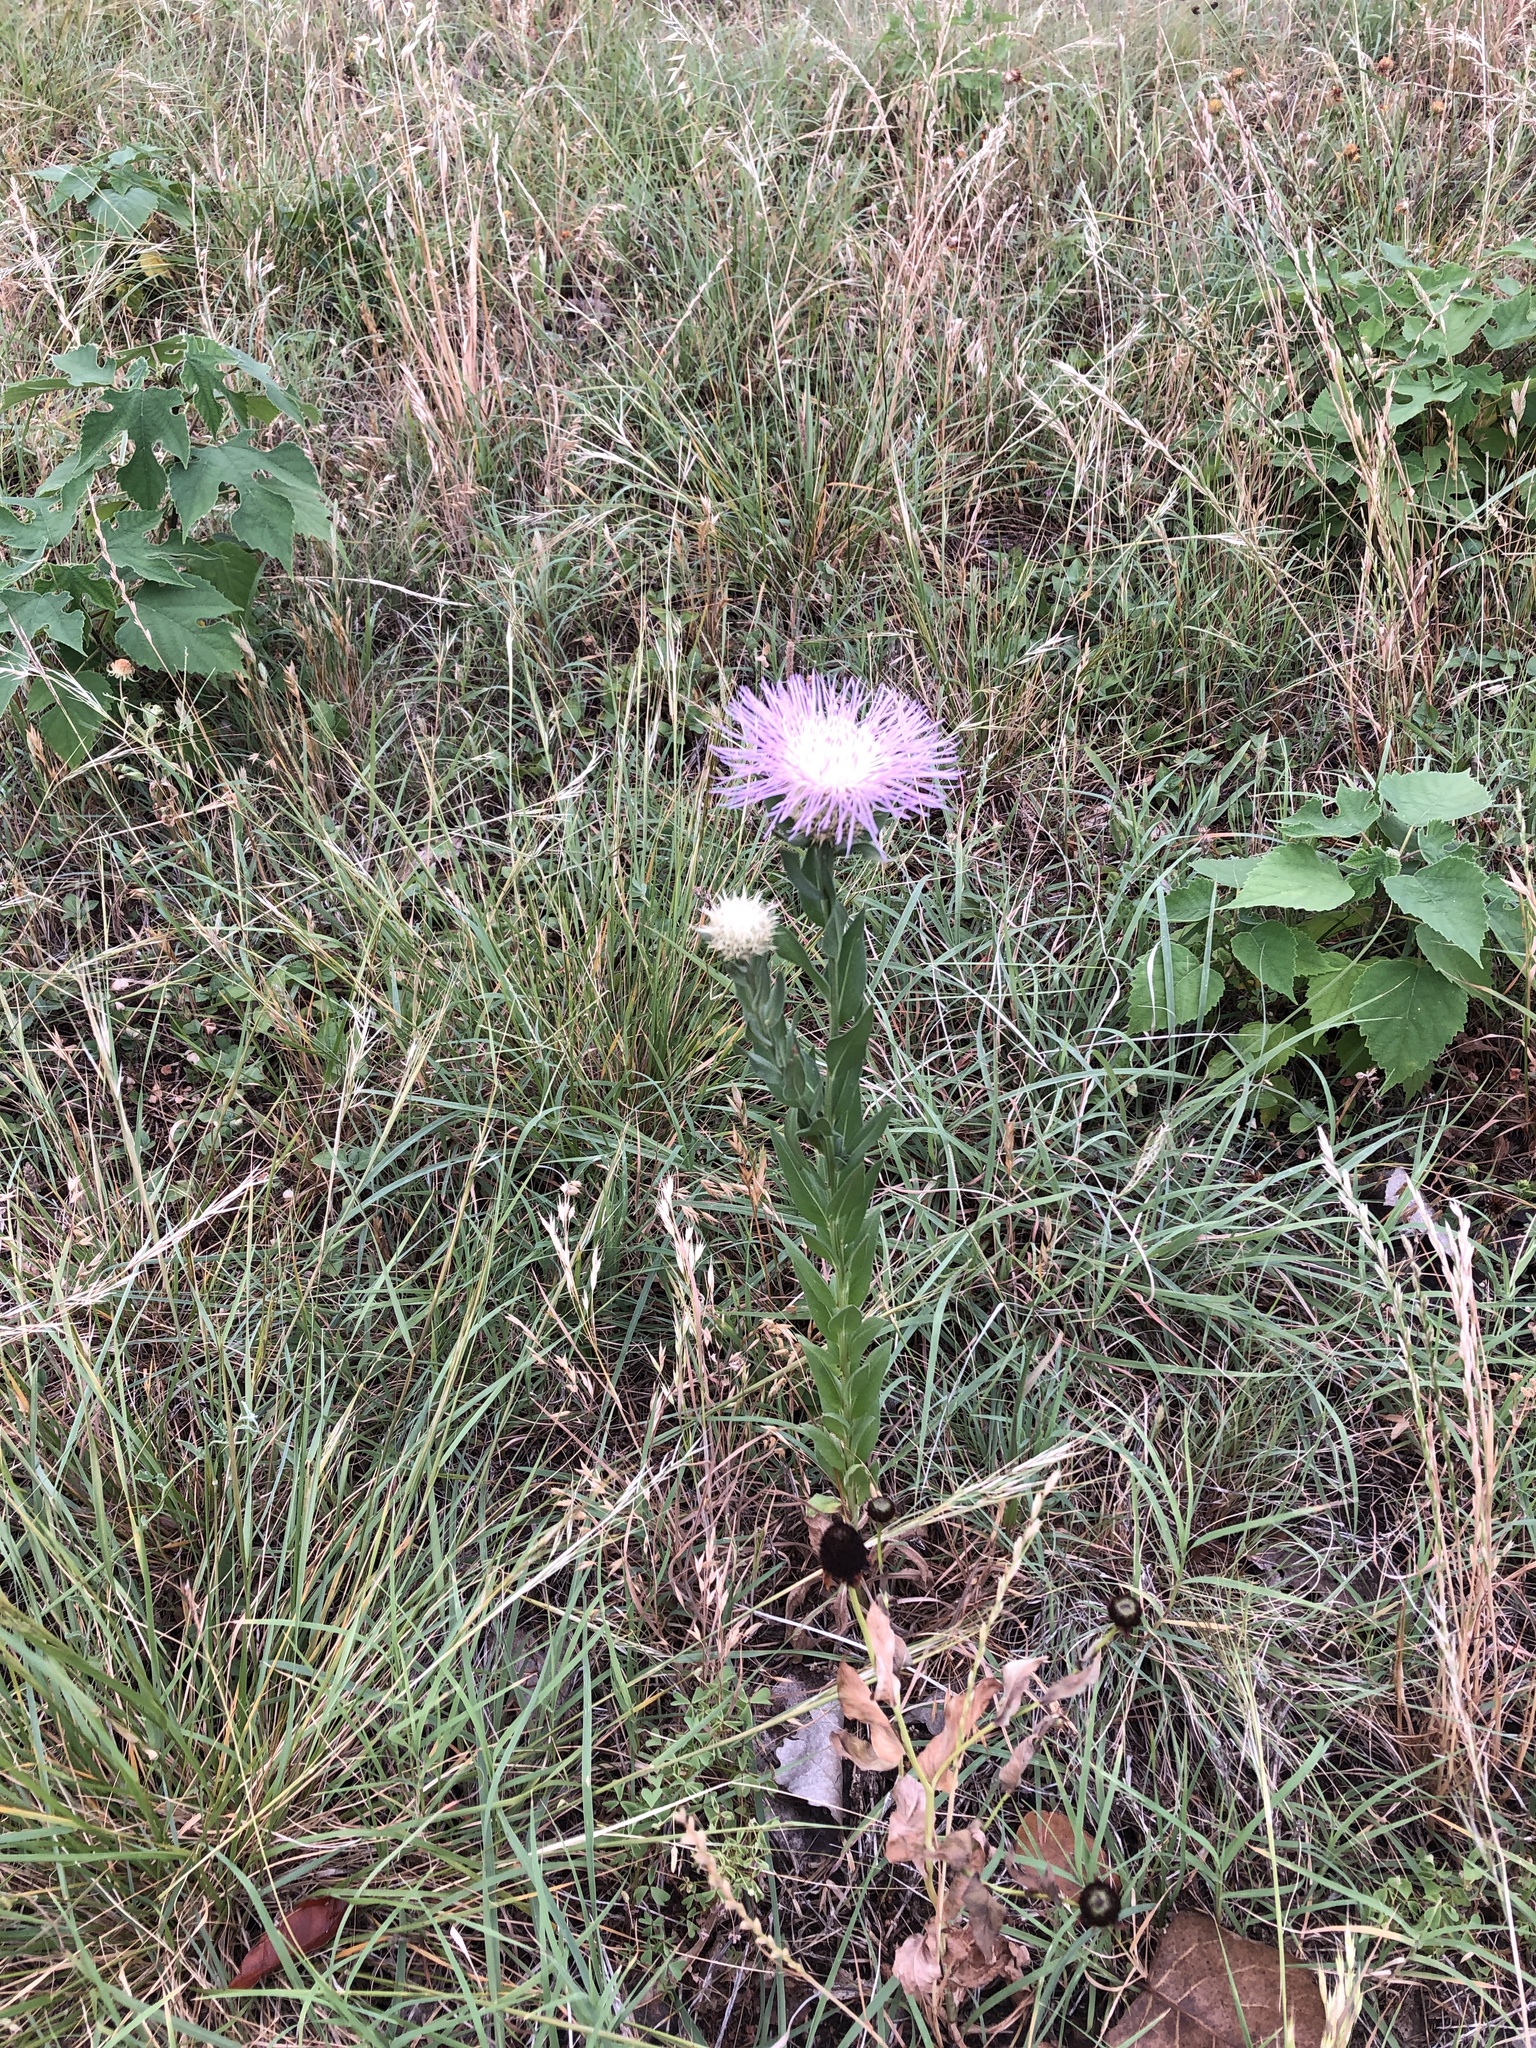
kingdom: Plantae
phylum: Tracheophyta
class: Magnoliopsida
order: Asterales
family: Asteraceae
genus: Plectocephalus
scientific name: Plectocephalus americanus
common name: American basket-flower
